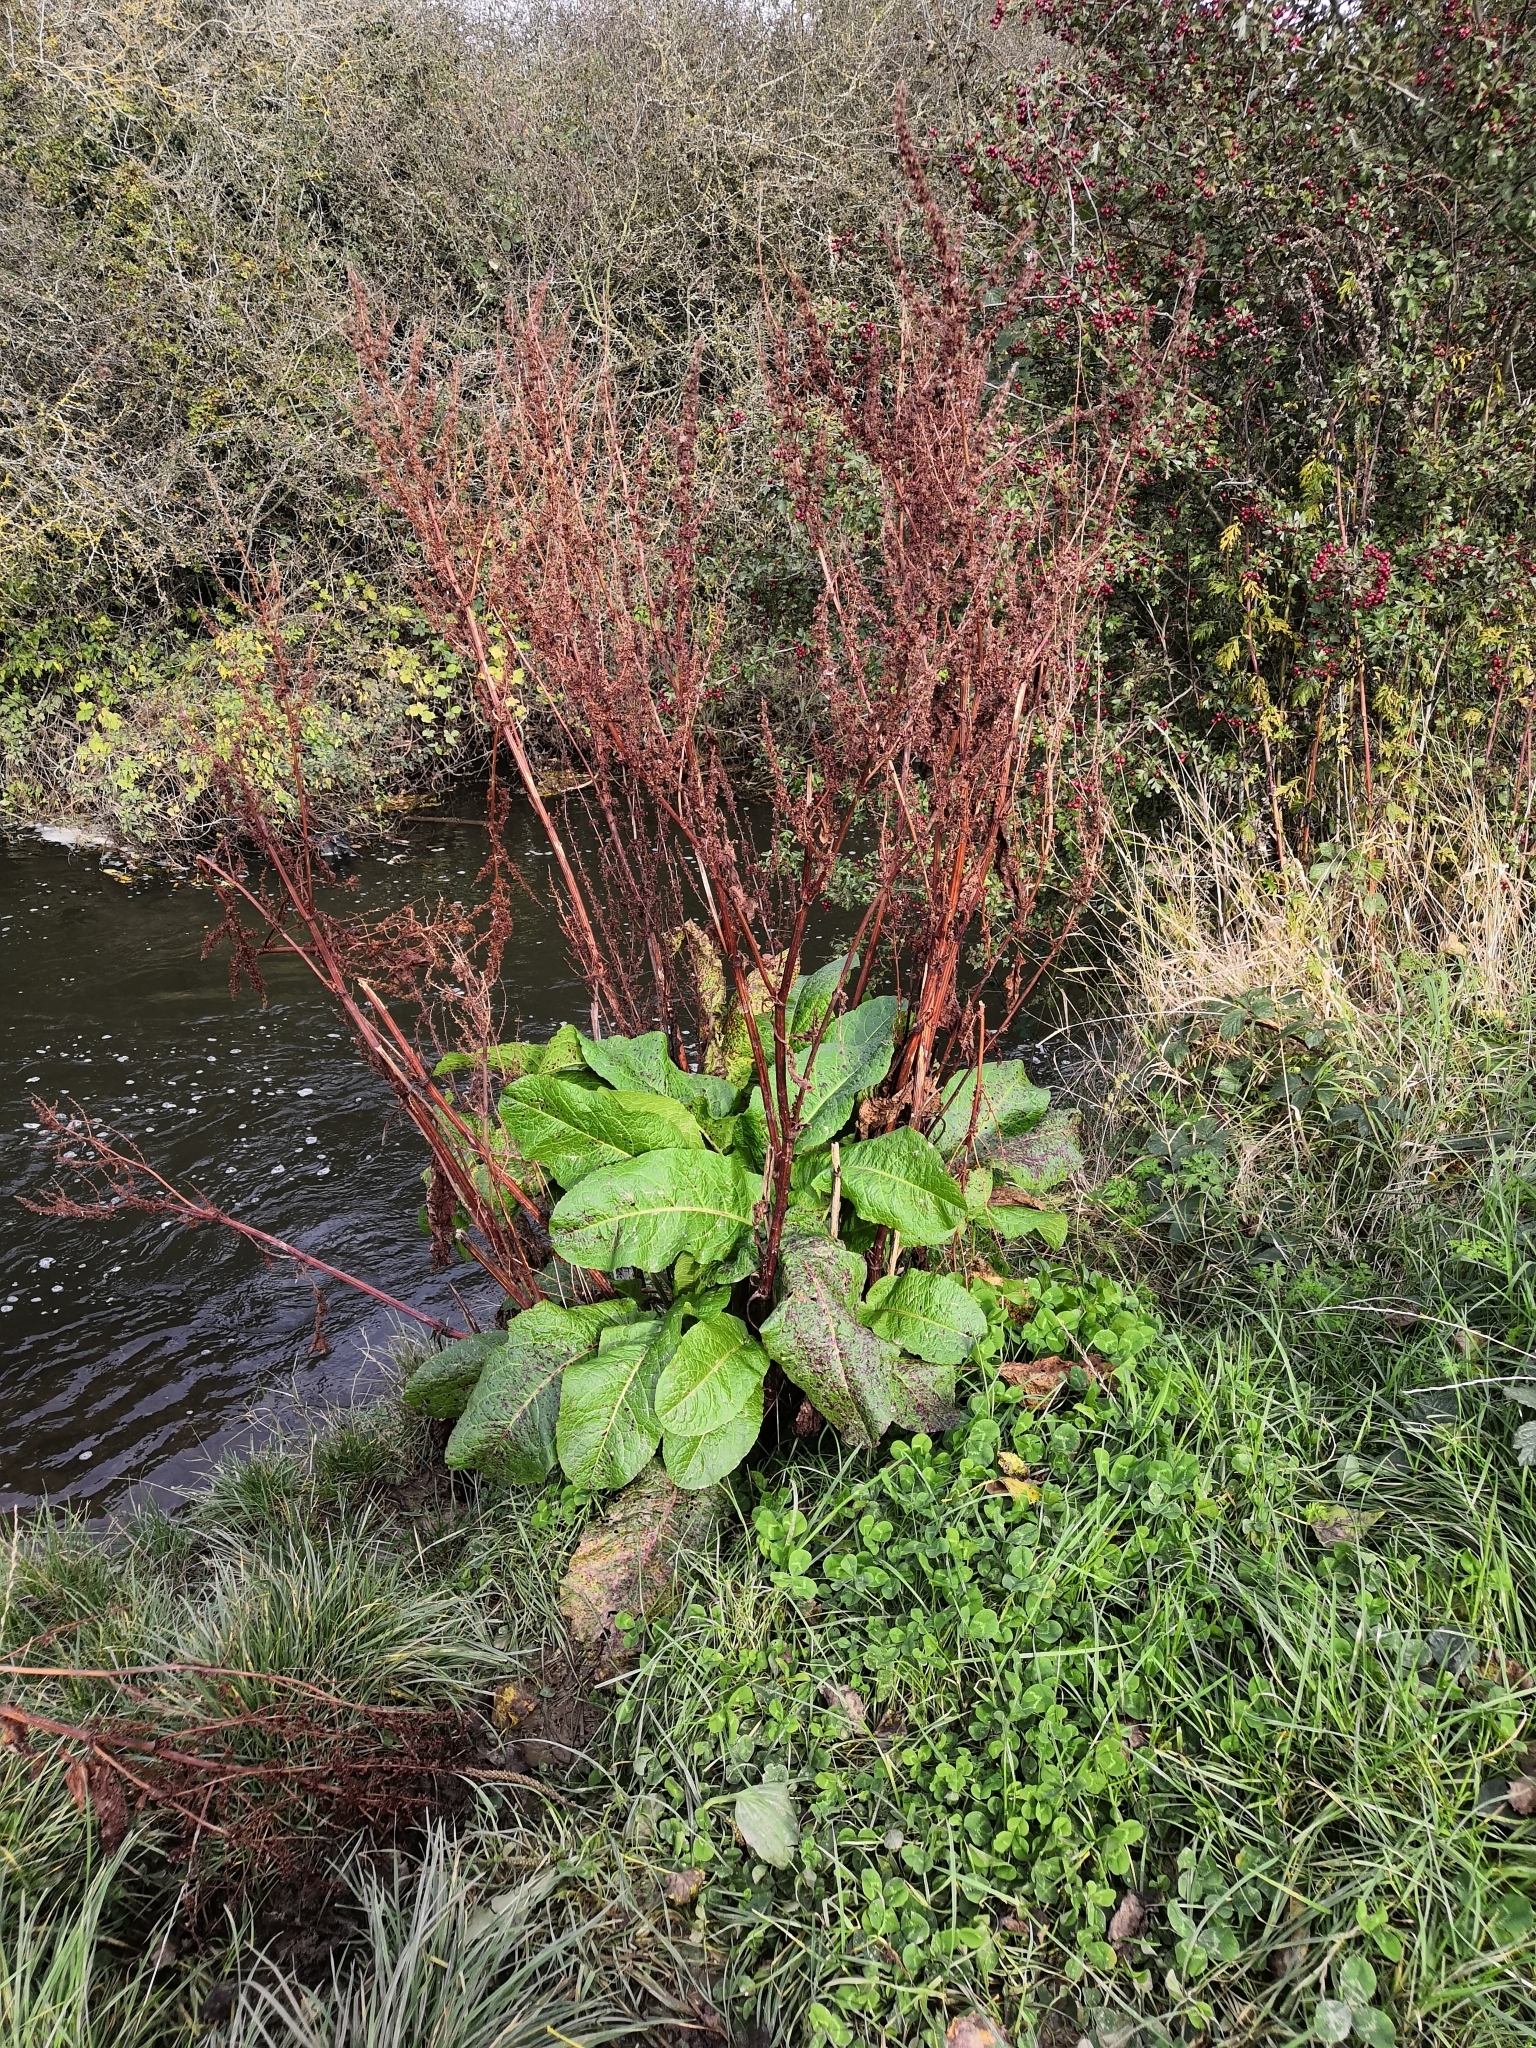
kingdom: Plantae
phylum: Tracheophyta
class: Magnoliopsida
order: Caryophyllales
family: Polygonaceae
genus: Rumex
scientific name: Rumex obtusifolius
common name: Bitter dock
